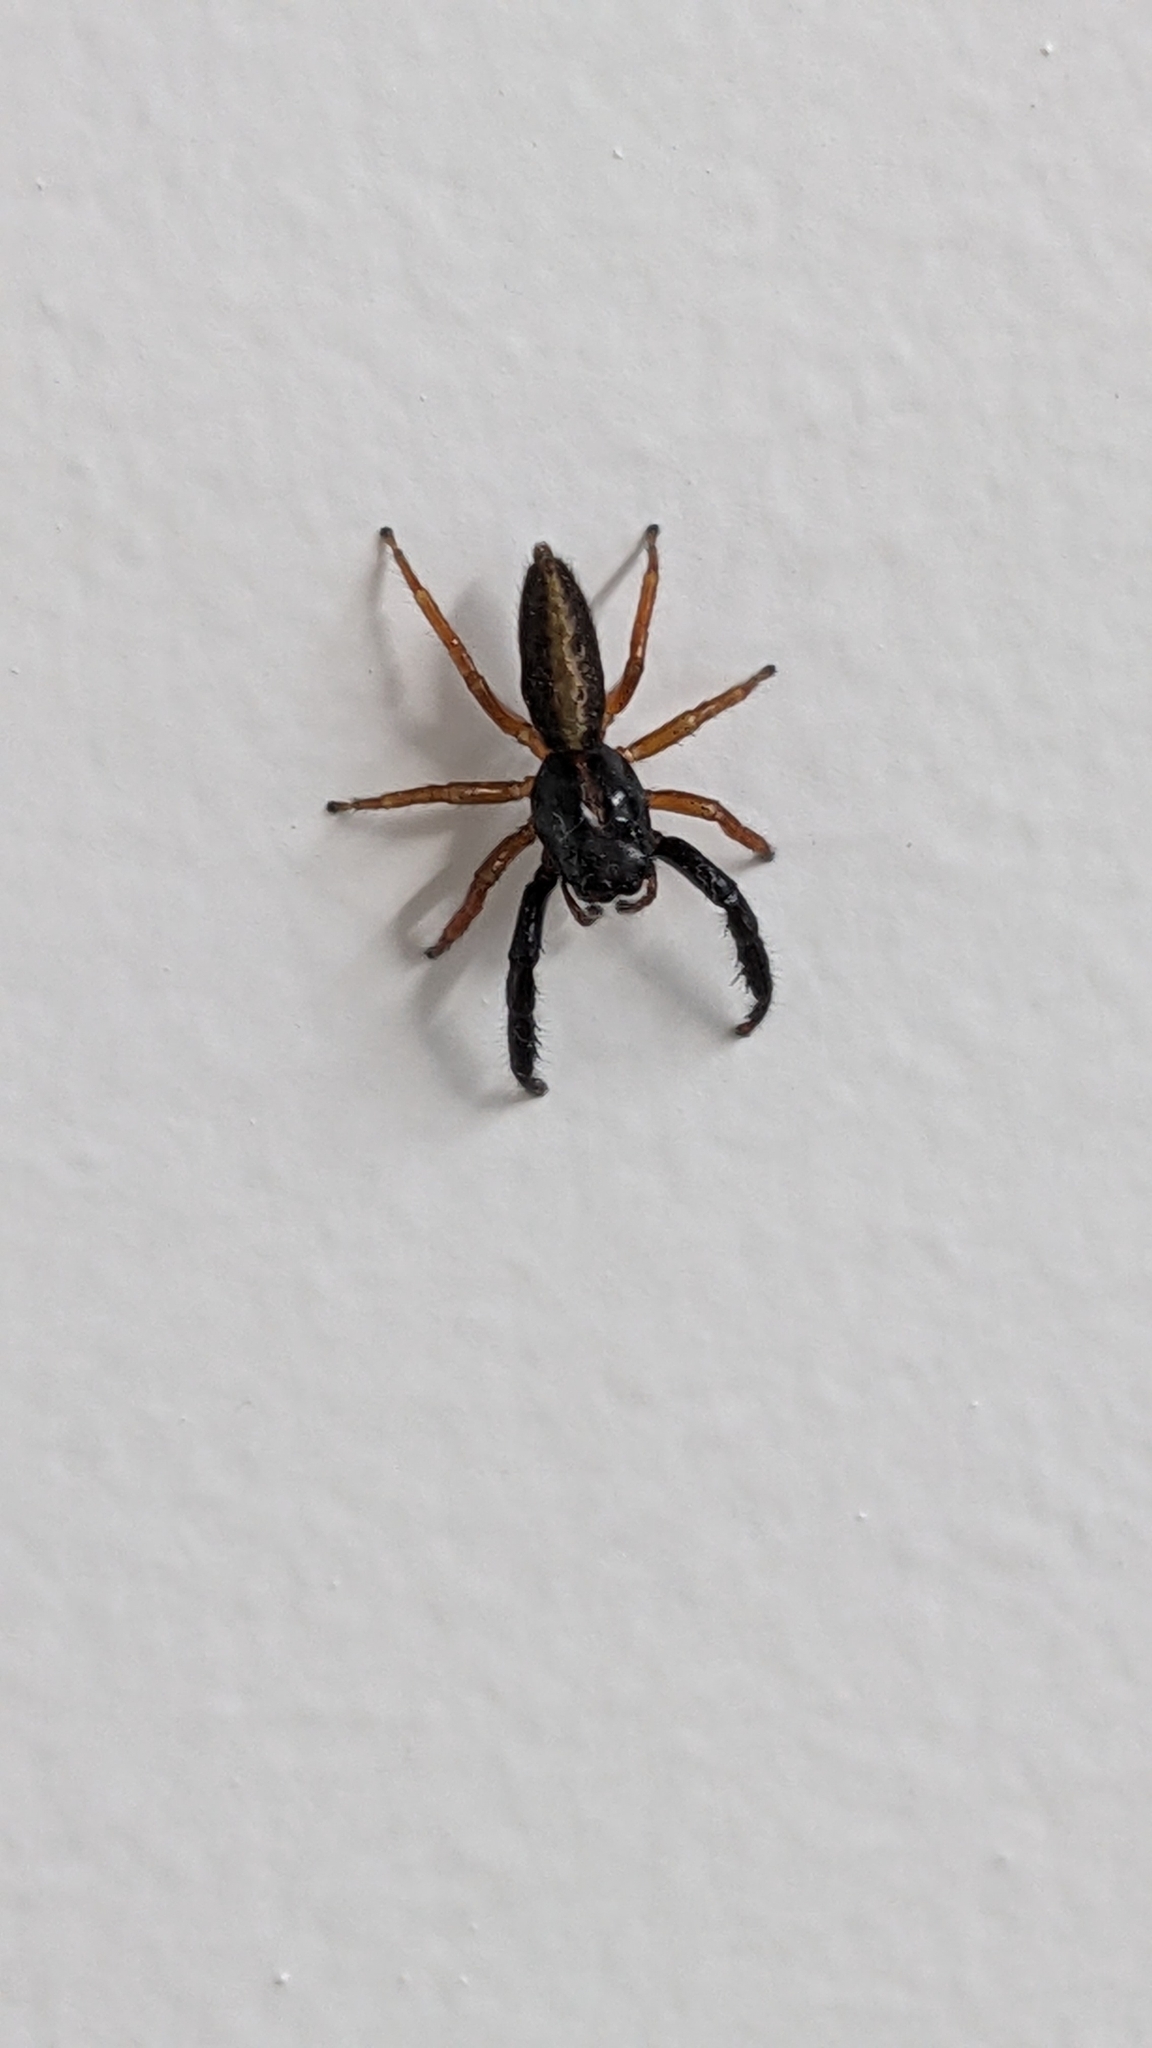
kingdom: Animalia
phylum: Arthropoda
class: Arachnida
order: Araneae
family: Salticidae
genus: Trite
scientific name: Trite planiceps
